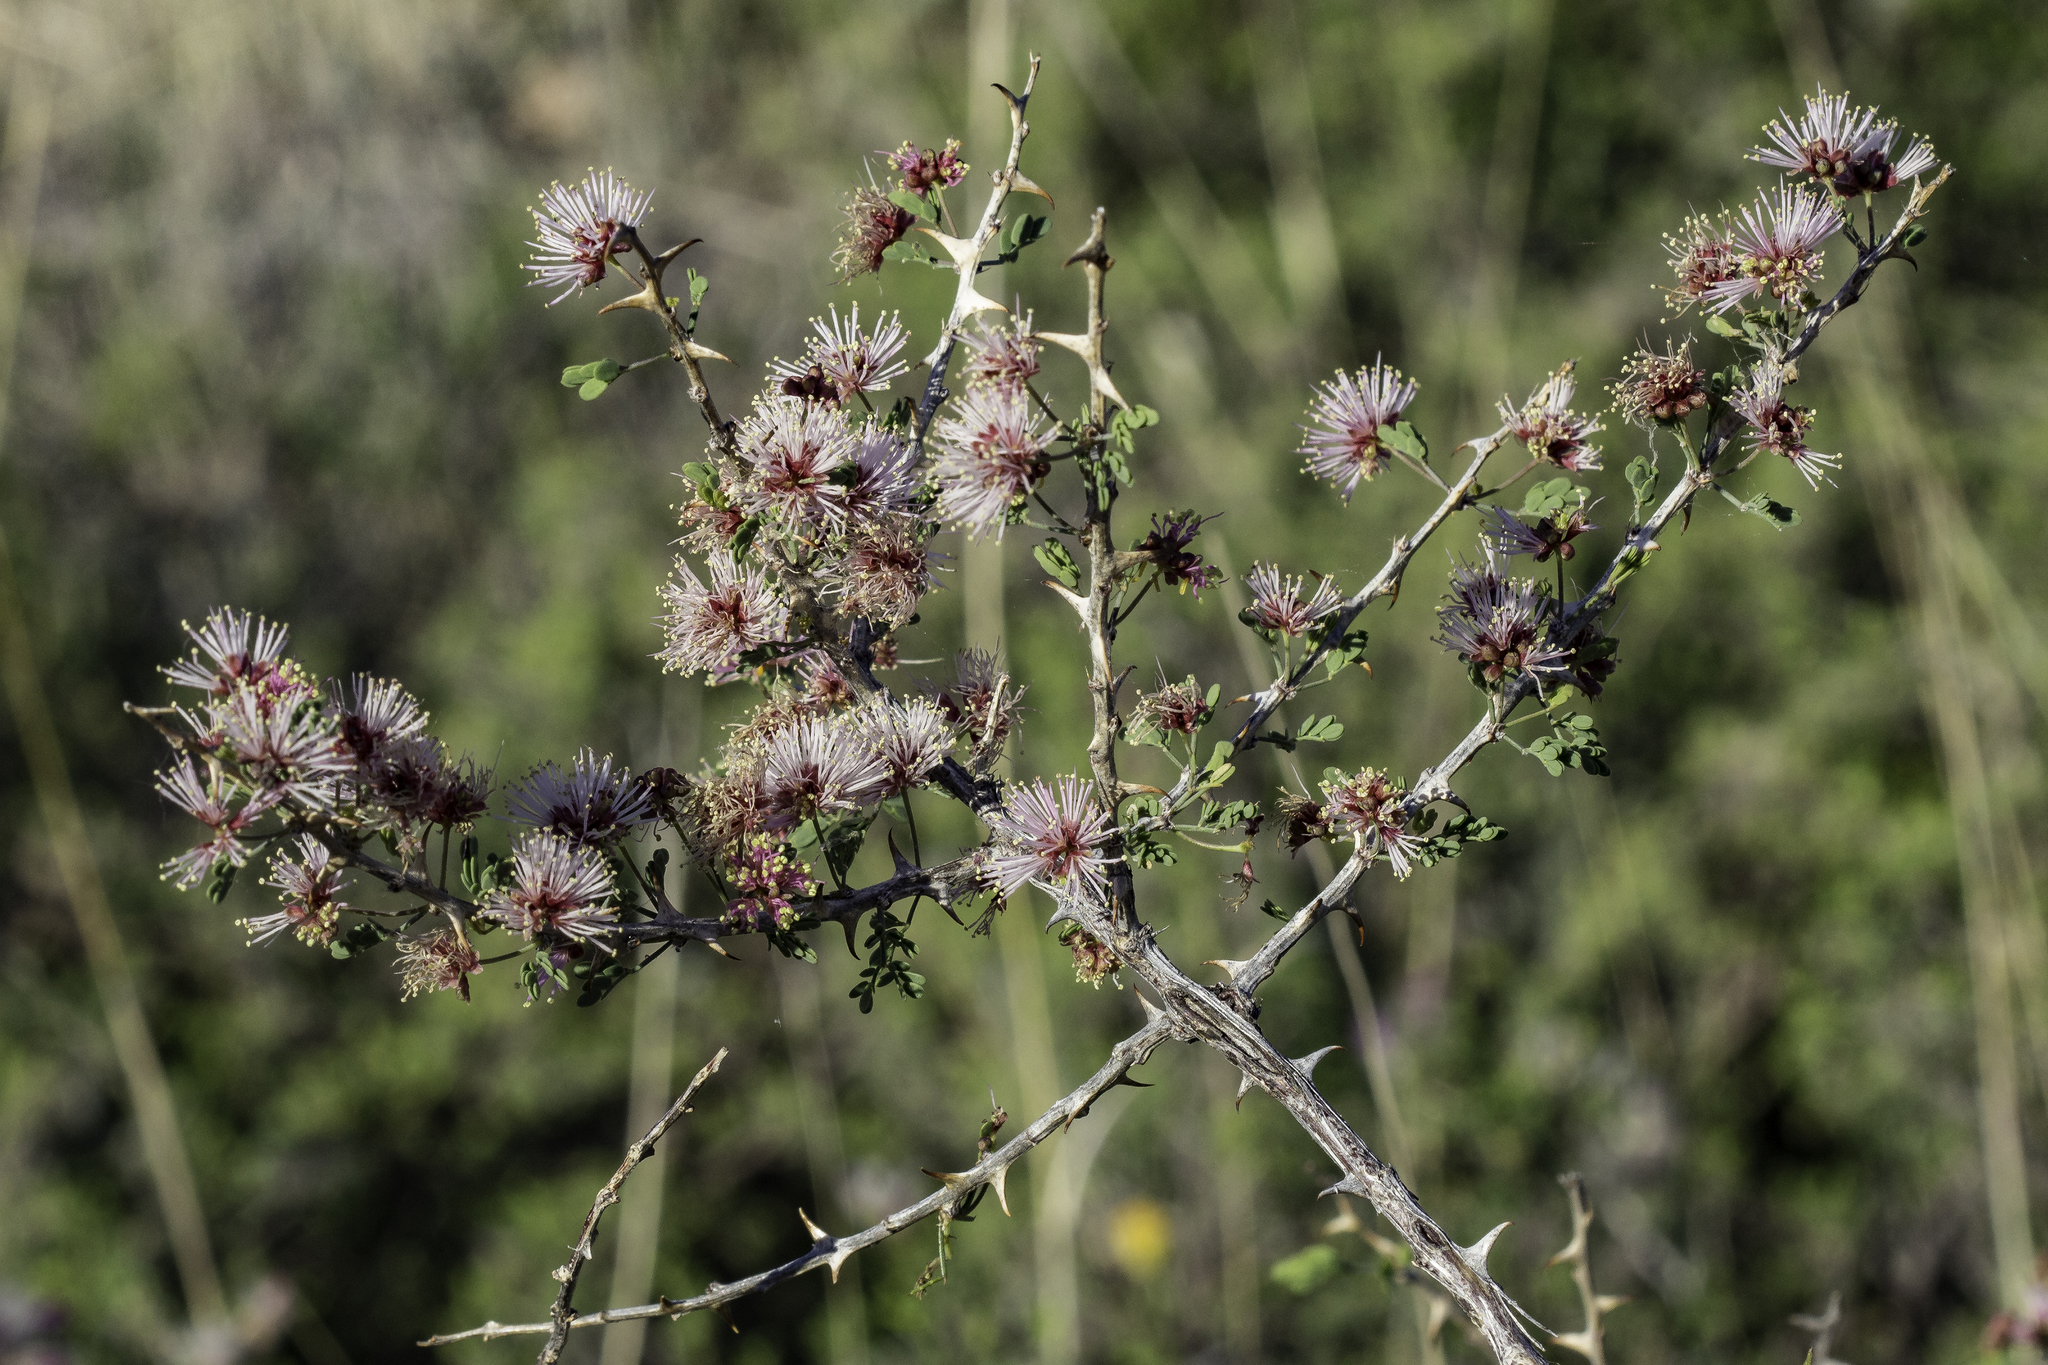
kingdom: Plantae
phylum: Tracheophyta
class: Magnoliopsida
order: Fabales
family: Fabaceae
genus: Mimosa
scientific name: Mimosa borealis
